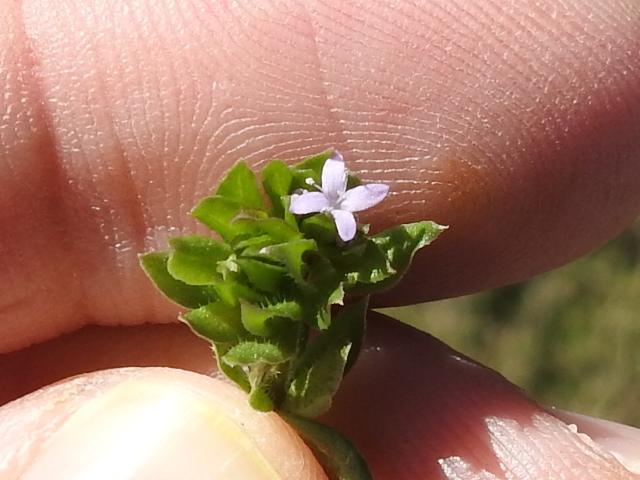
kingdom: Plantae
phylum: Tracheophyta
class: Magnoliopsida
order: Gentianales
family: Rubiaceae
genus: Sherardia
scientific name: Sherardia arvensis
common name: Field madder
